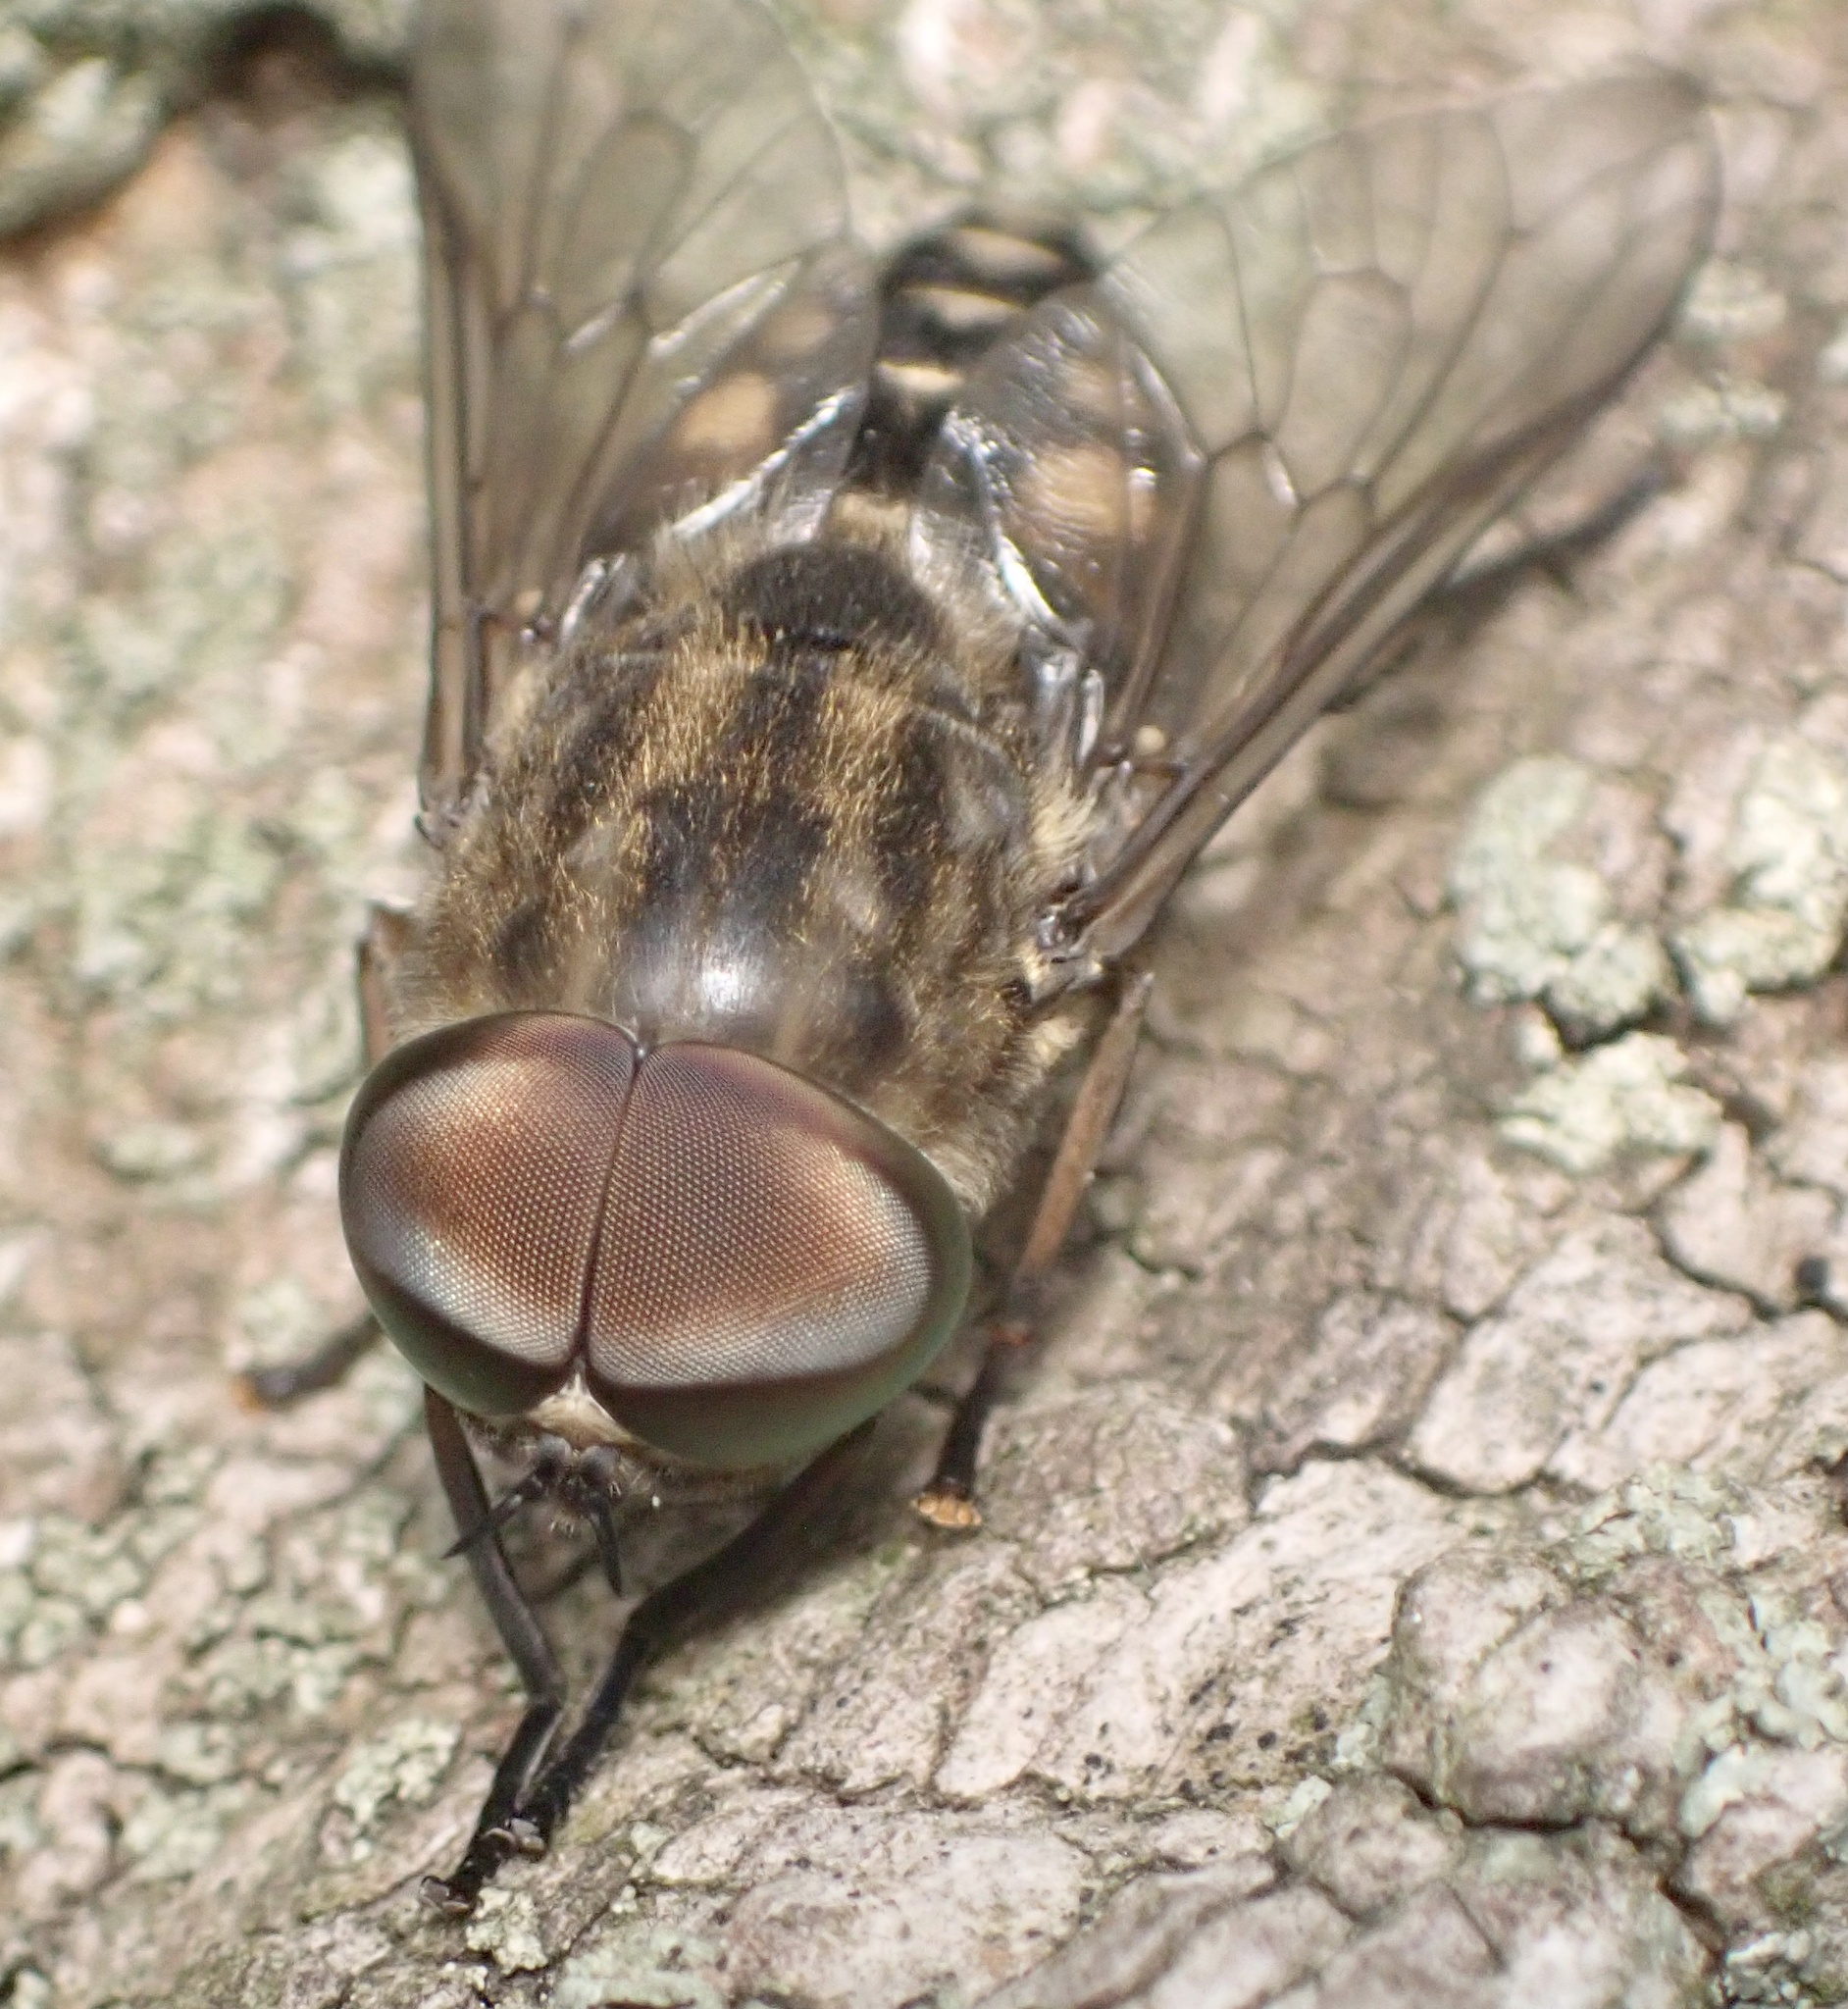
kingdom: Animalia
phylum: Arthropoda
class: Insecta
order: Diptera
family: Tabanidae
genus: Tabanus
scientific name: Tabanus autumnalis
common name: Large marsh horsefly
